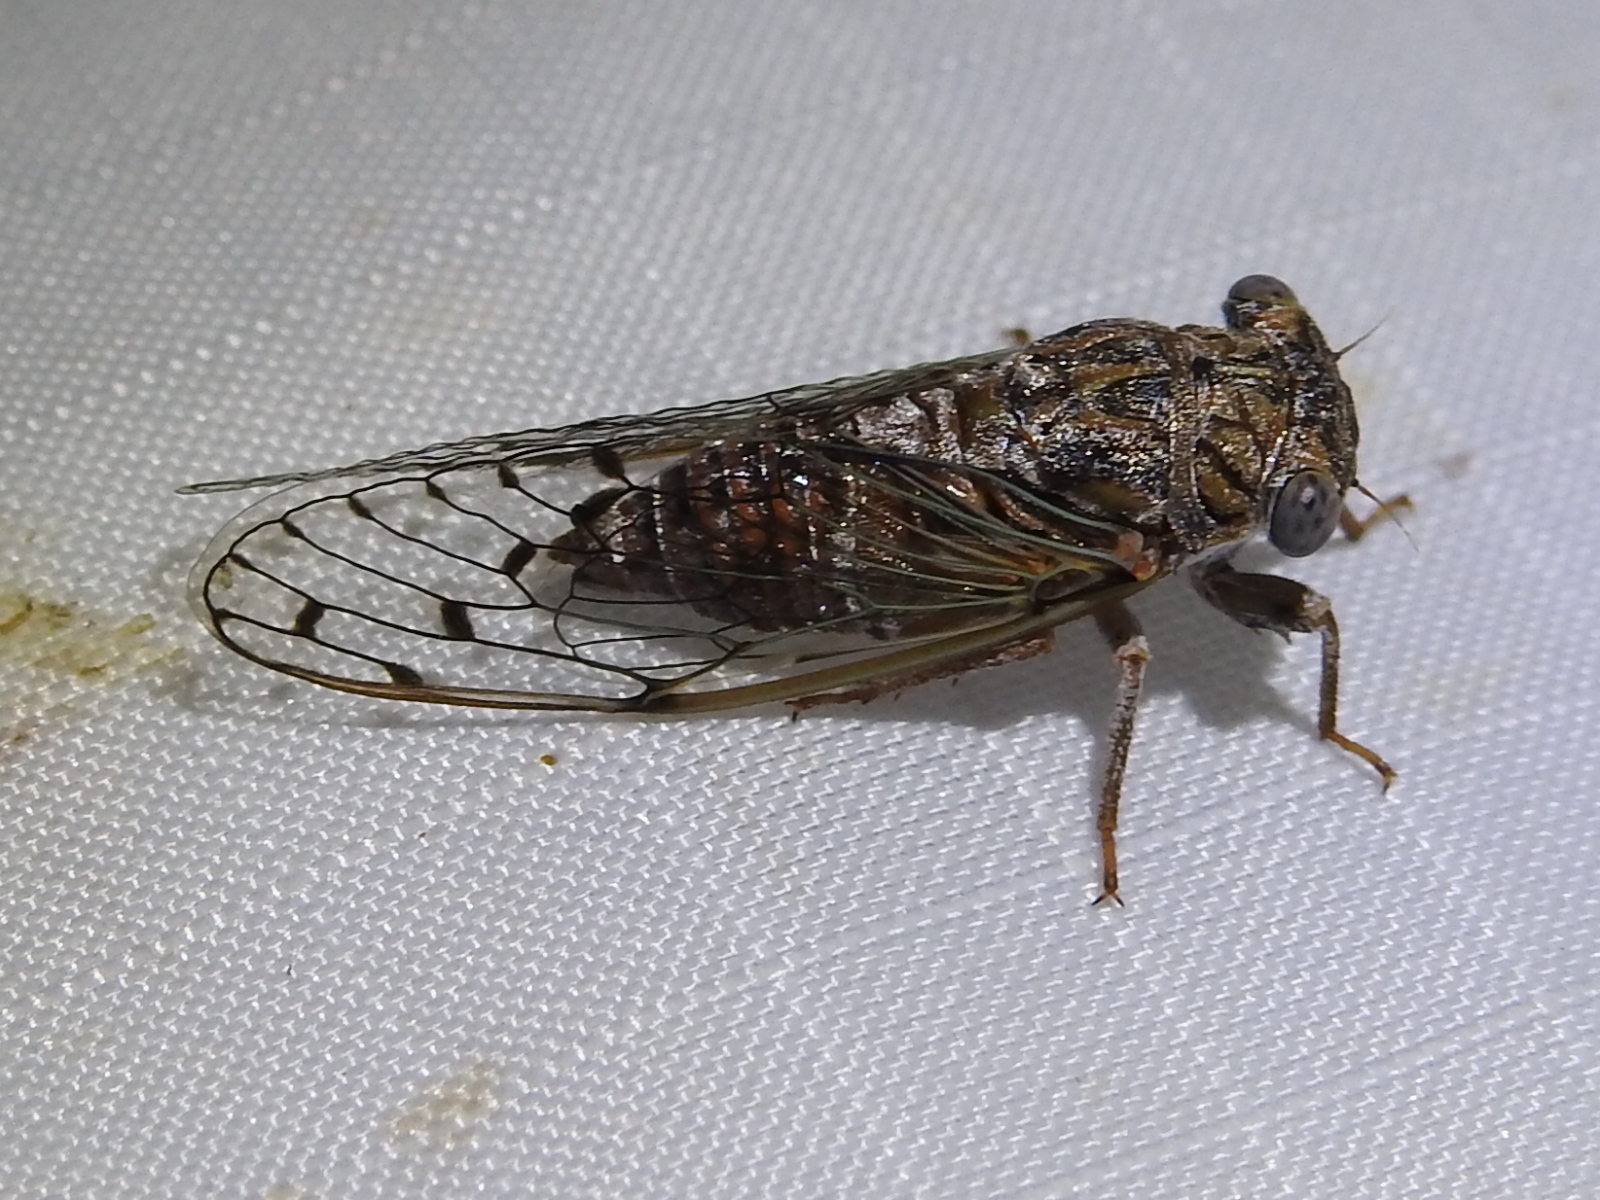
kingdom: Animalia
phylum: Arthropoda
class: Insecta
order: Hemiptera
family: Cicadidae
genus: Pacarina
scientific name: Pacarina puella
